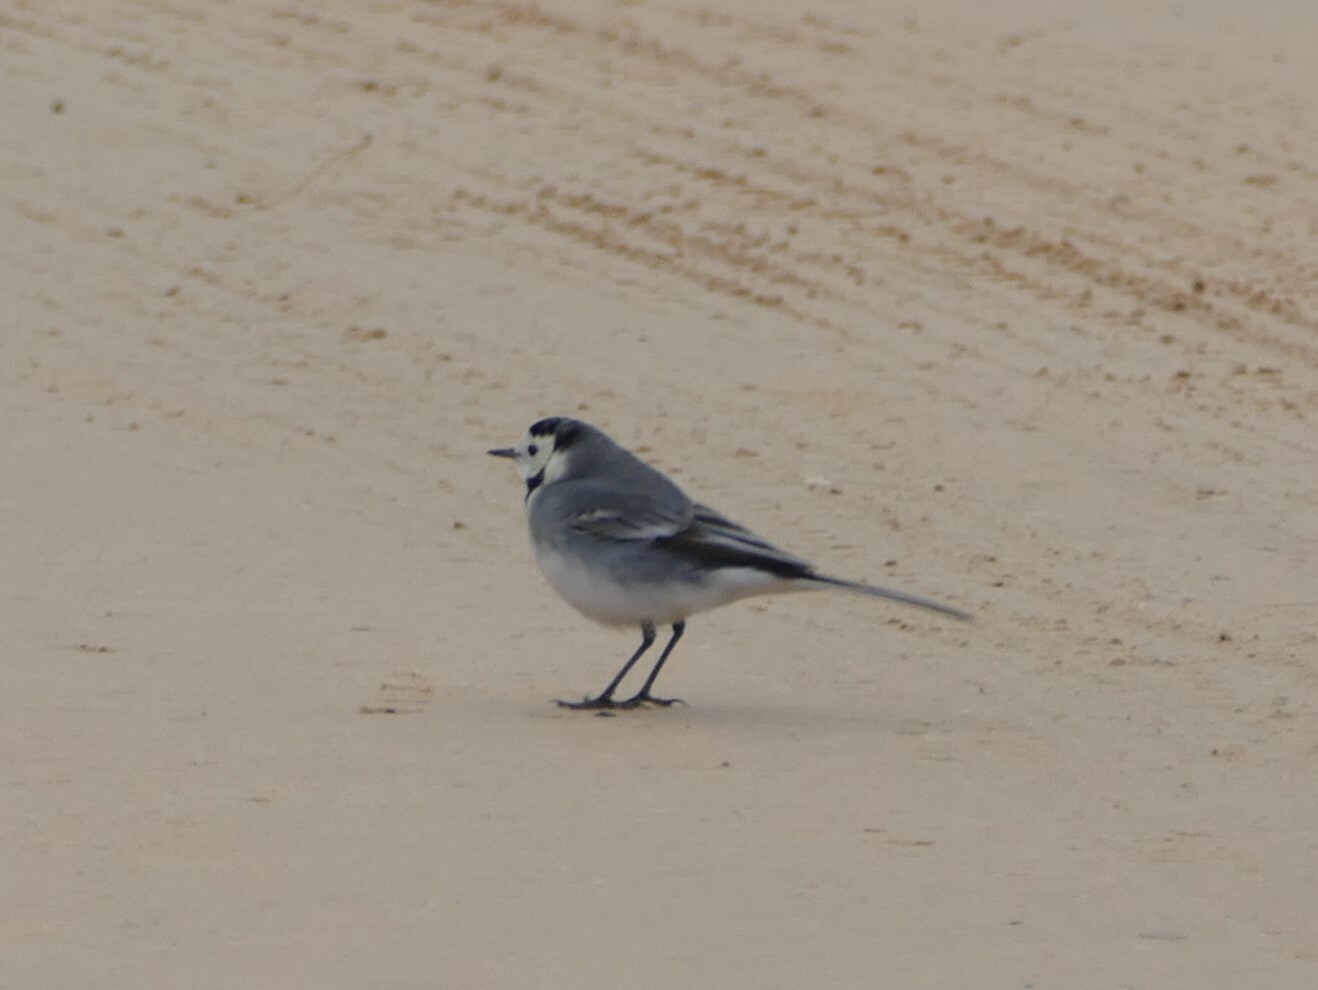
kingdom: Animalia
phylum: Chordata
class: Aves
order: Passeriformes
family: Motacillidae
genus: Motacilla
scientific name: Motacilla alba
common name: White wagtail
